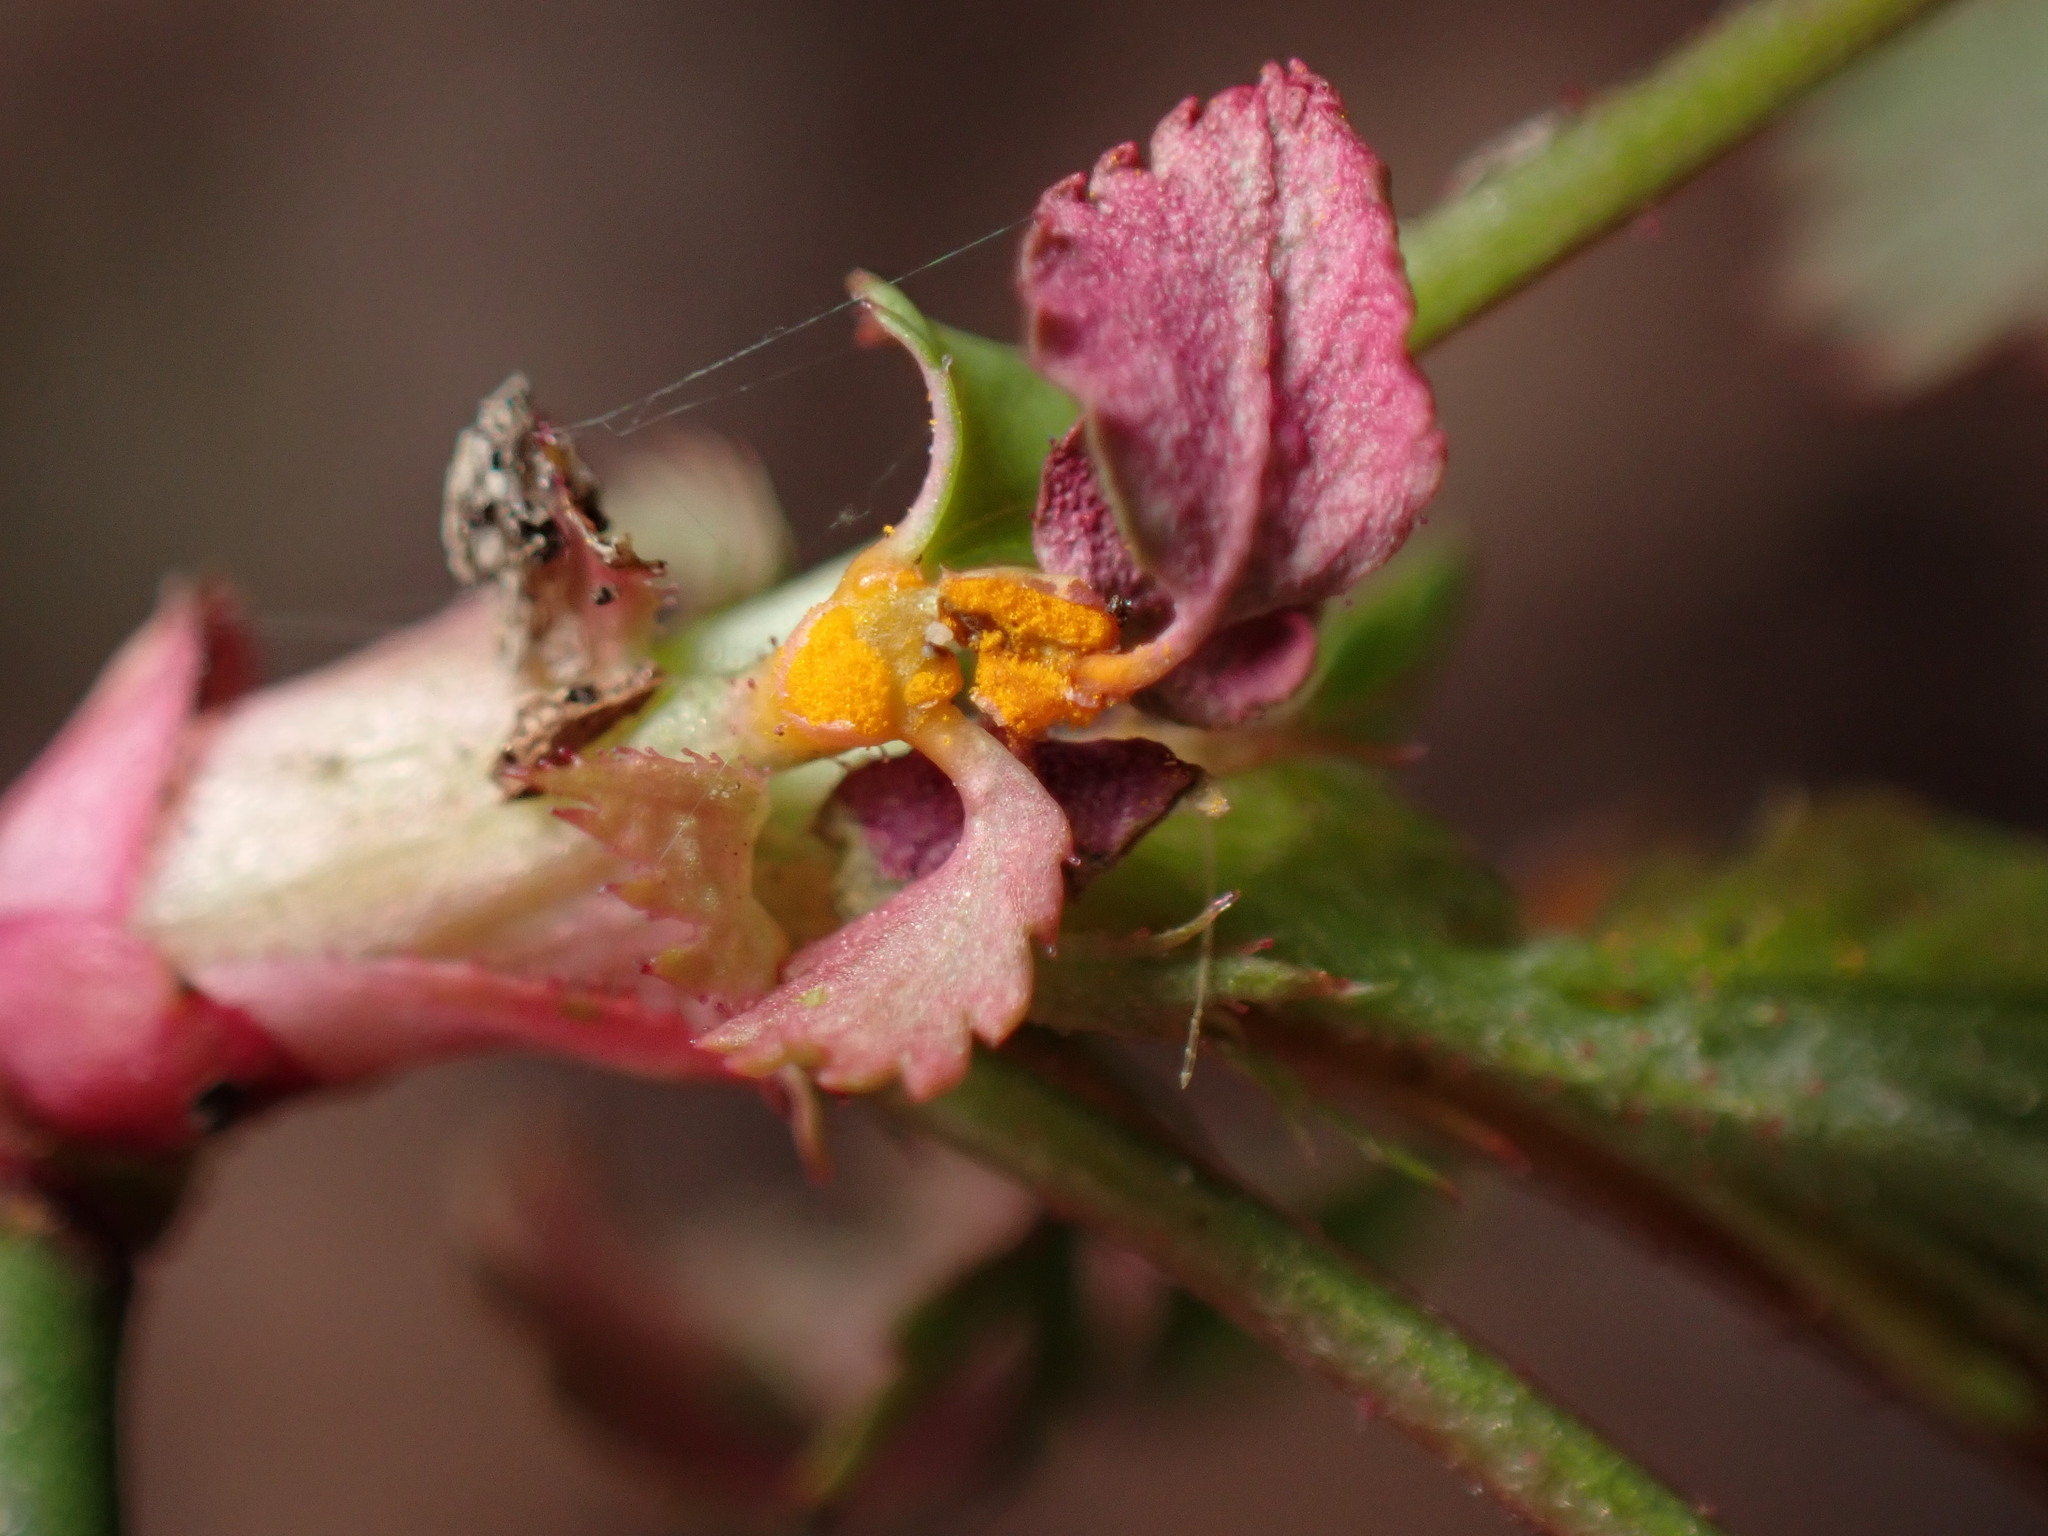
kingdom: Fungi
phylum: Basidiomycota
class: Pucciniomycetes
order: Pucciniales
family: Phragmidiaceae
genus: Phragmidium
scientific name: Phragmidium rosae-multiflorae
